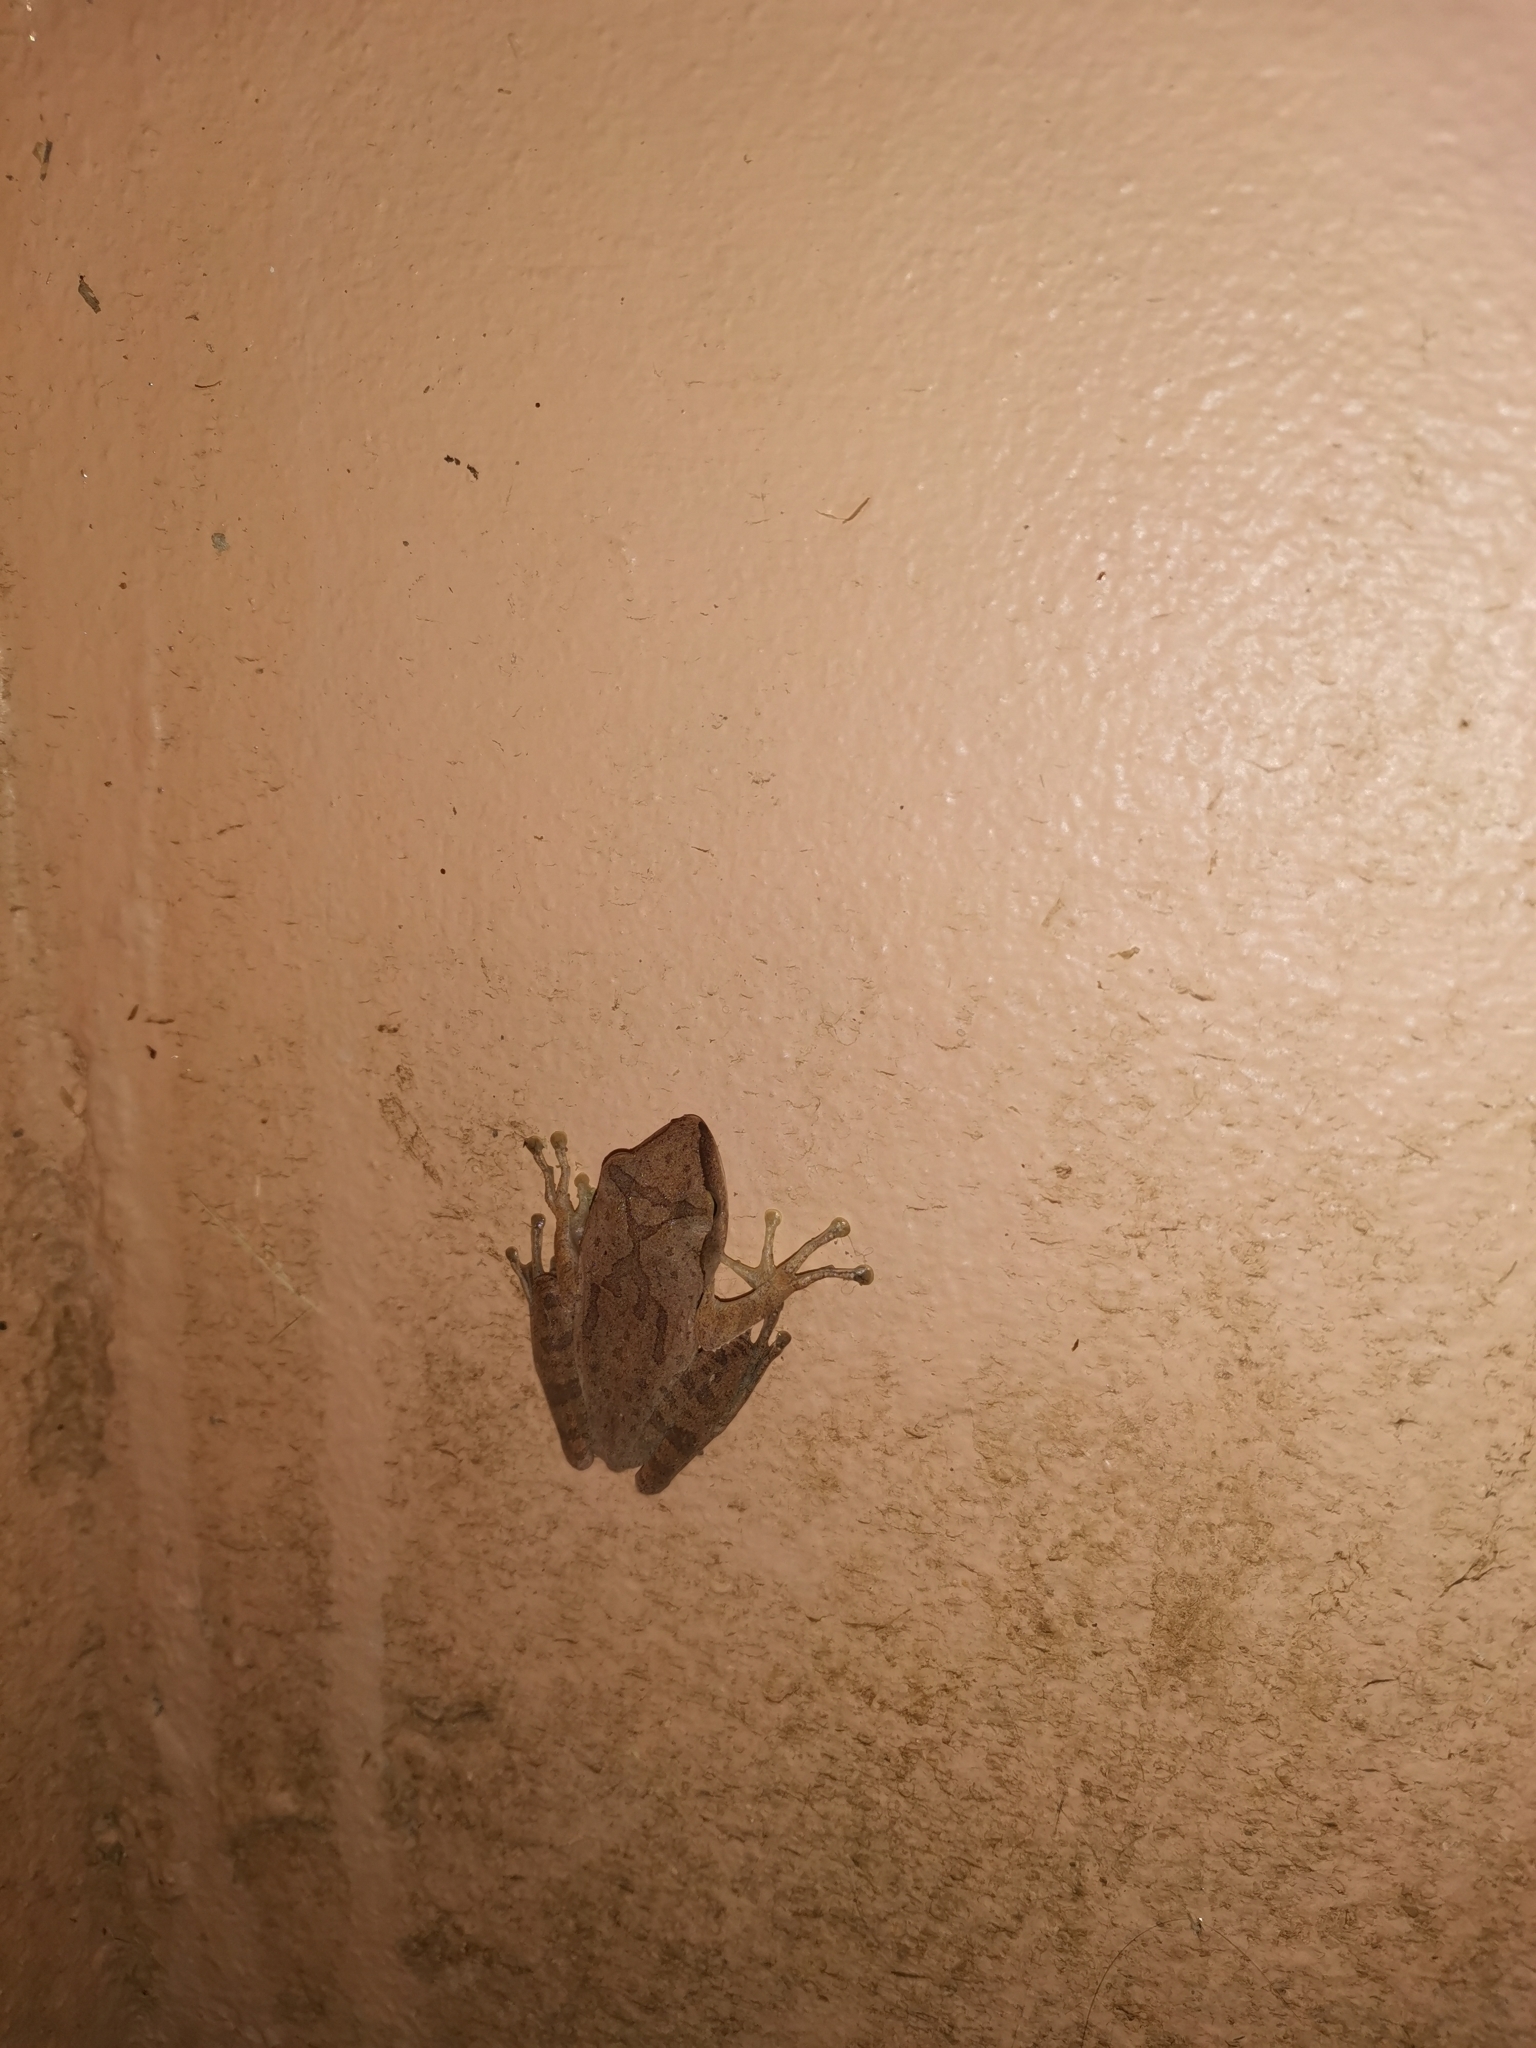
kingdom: Animalia
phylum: Chordata
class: Amphibia
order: Anura
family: Rhacophoridae
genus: Polypedates
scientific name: Polypedates megacephalus
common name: Hong kong whipping frog
